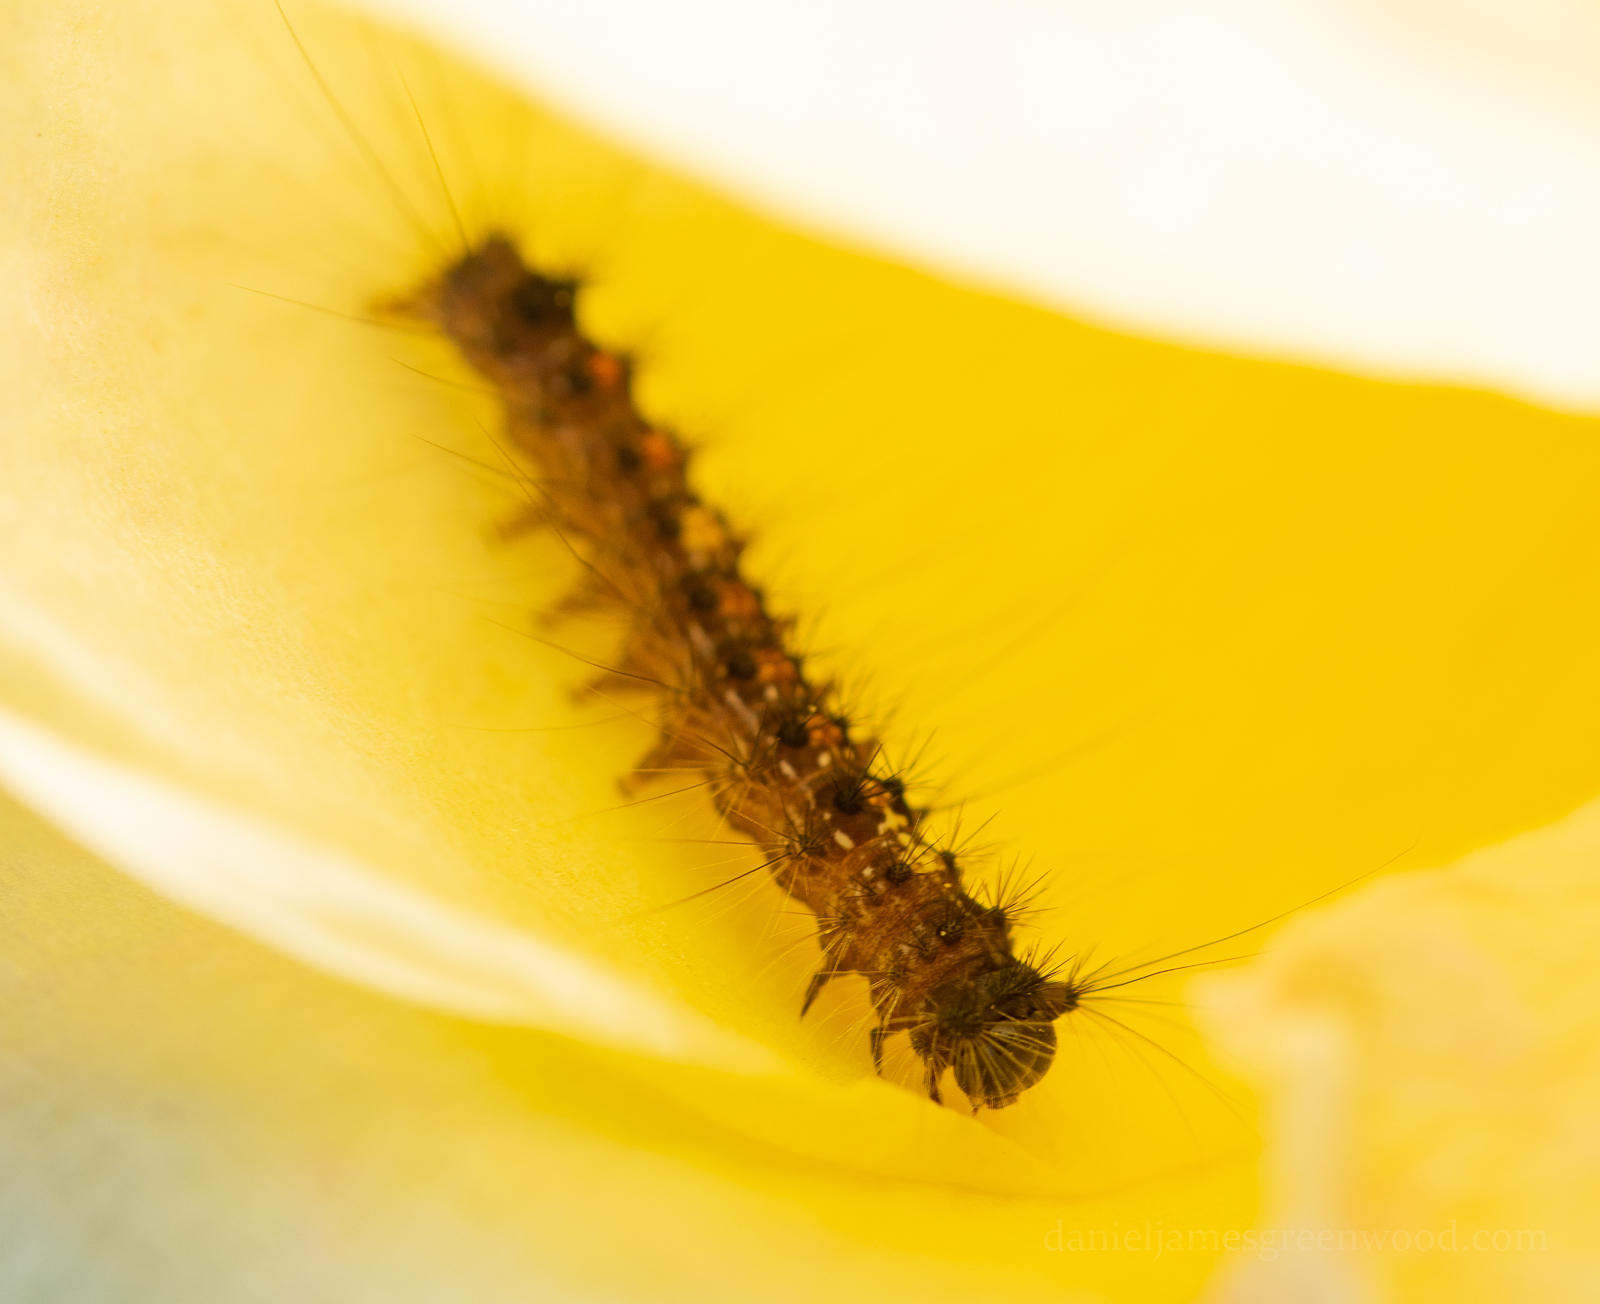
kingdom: Animalia
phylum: Arthropoda
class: Insecta
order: Lepidoptera
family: Erebidae
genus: Lymantria
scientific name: Lymantria dispar
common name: Gypsy moth
